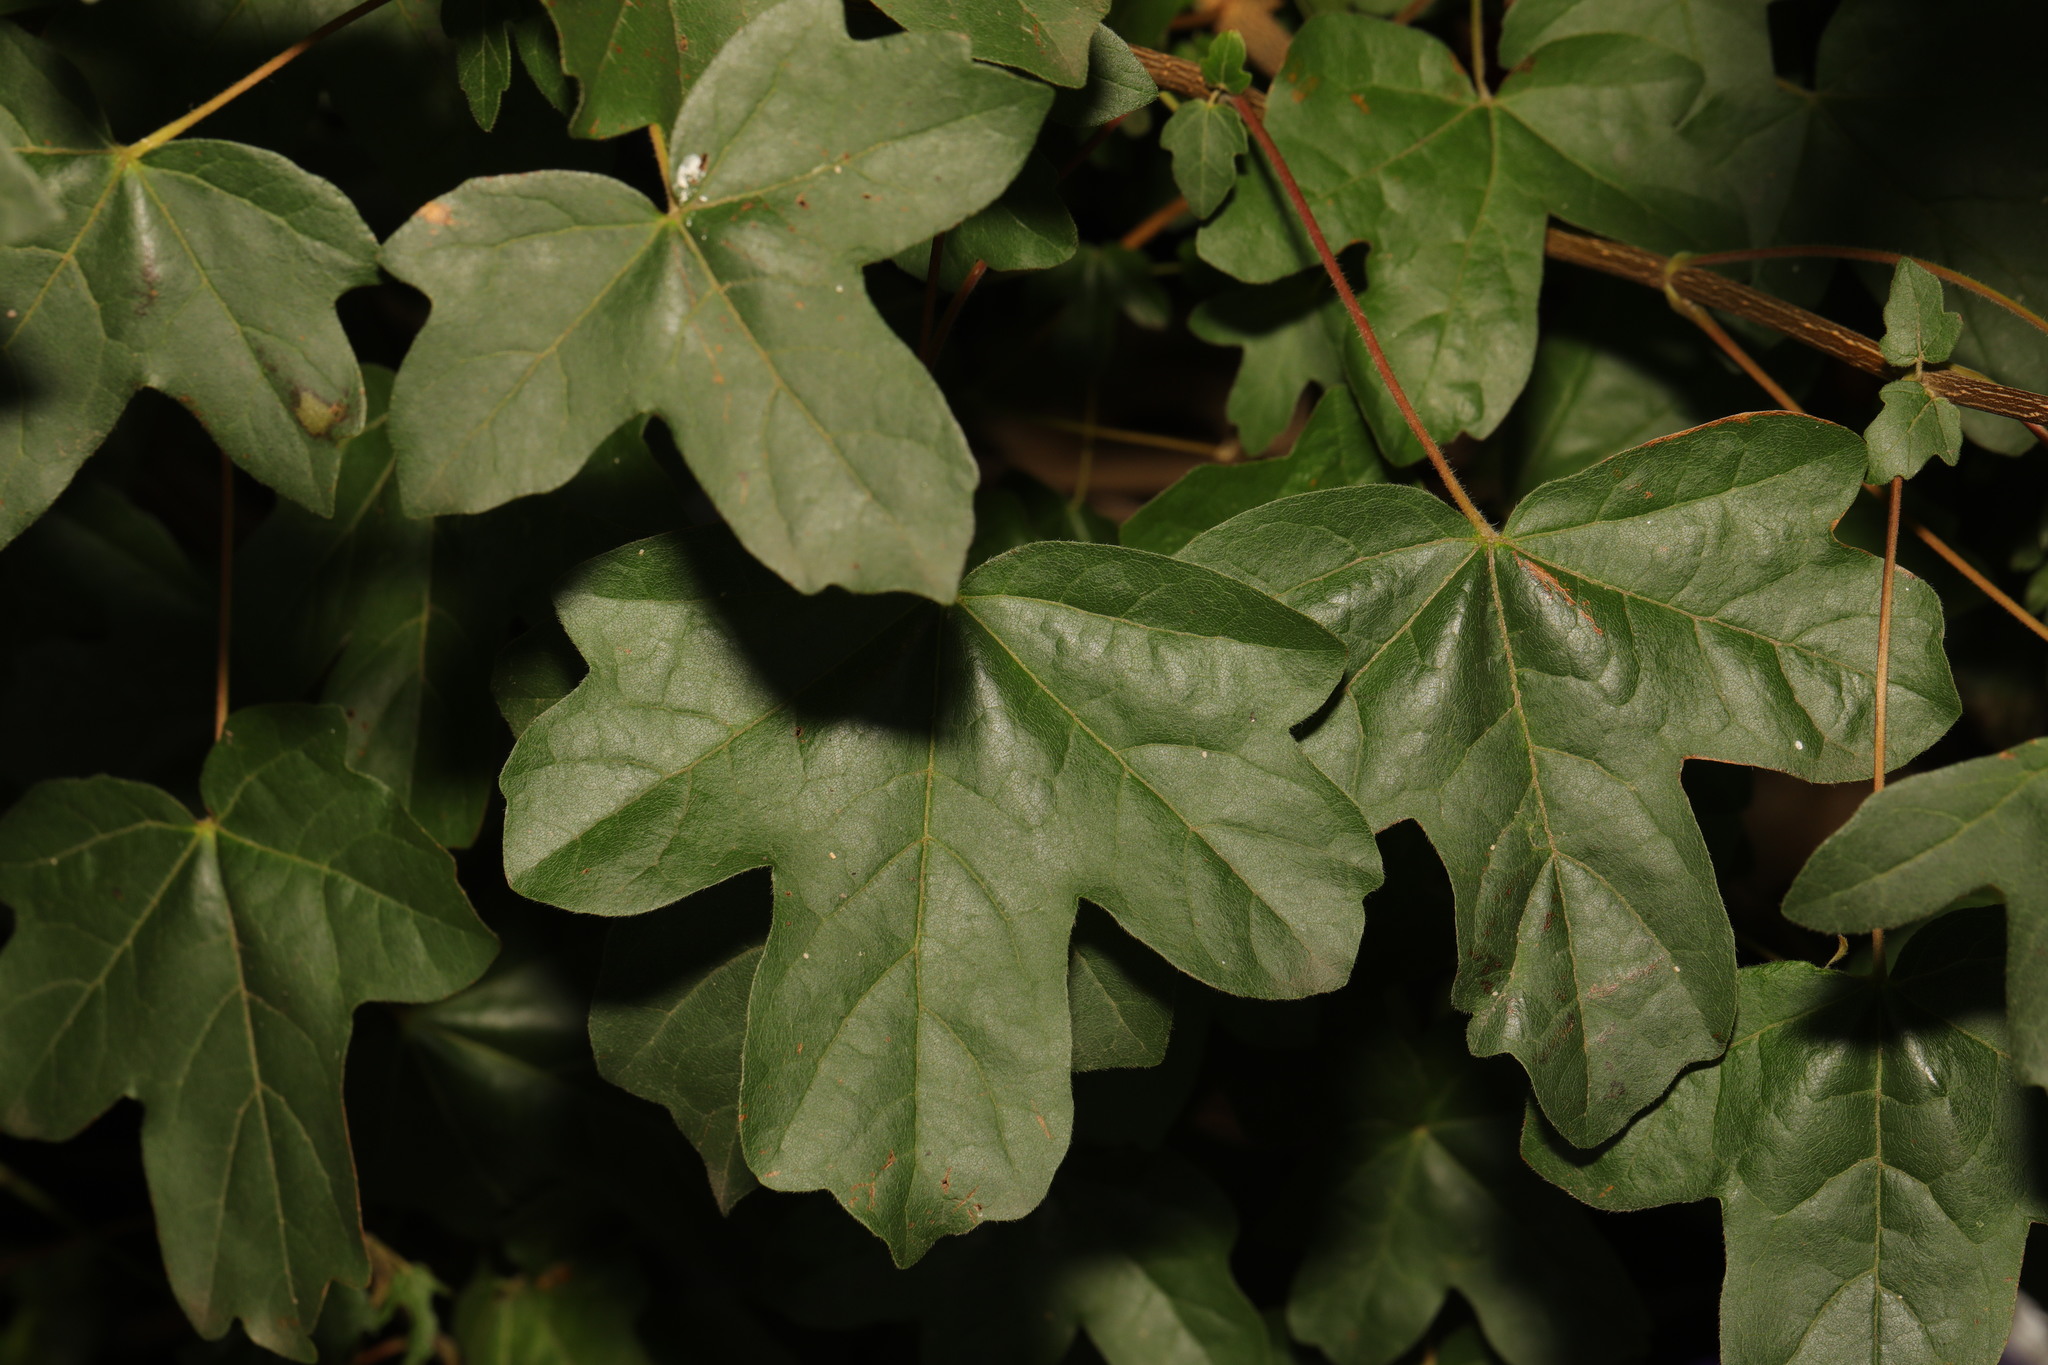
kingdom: Plantae
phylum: Tracheophyta
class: Magnoliopsida
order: Sapindales
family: Sapindaceae
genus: Acer
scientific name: Acer campestre
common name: Field maple
